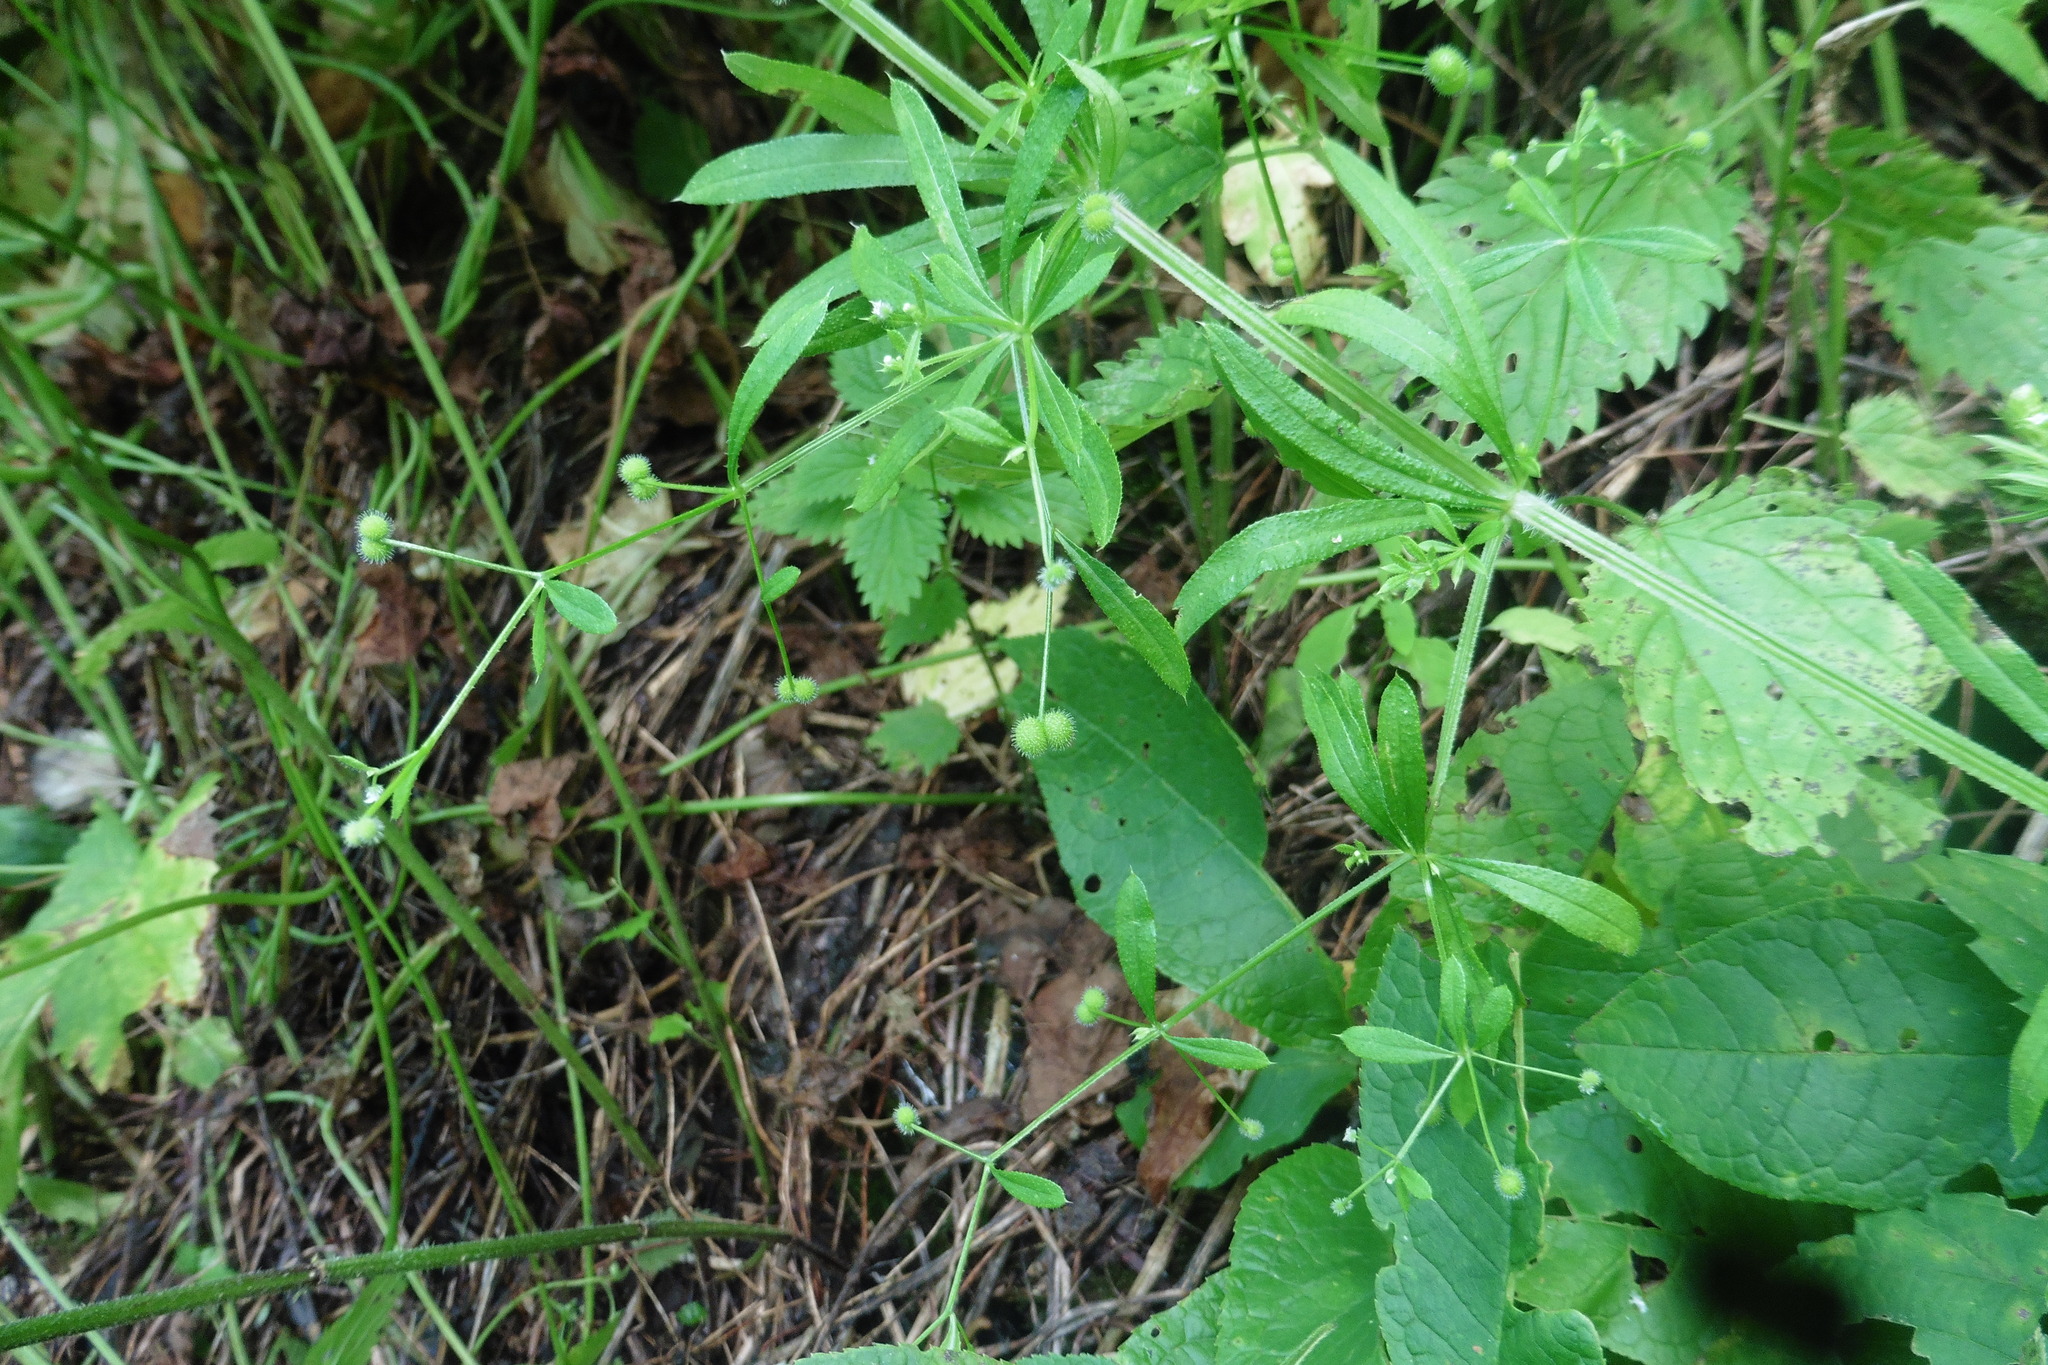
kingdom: Plantae
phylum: Tracheophyta
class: Magnoliopsida
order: Gentianales
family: Rubiaceae
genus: Galium
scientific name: Galium aparine
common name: Cleavers
